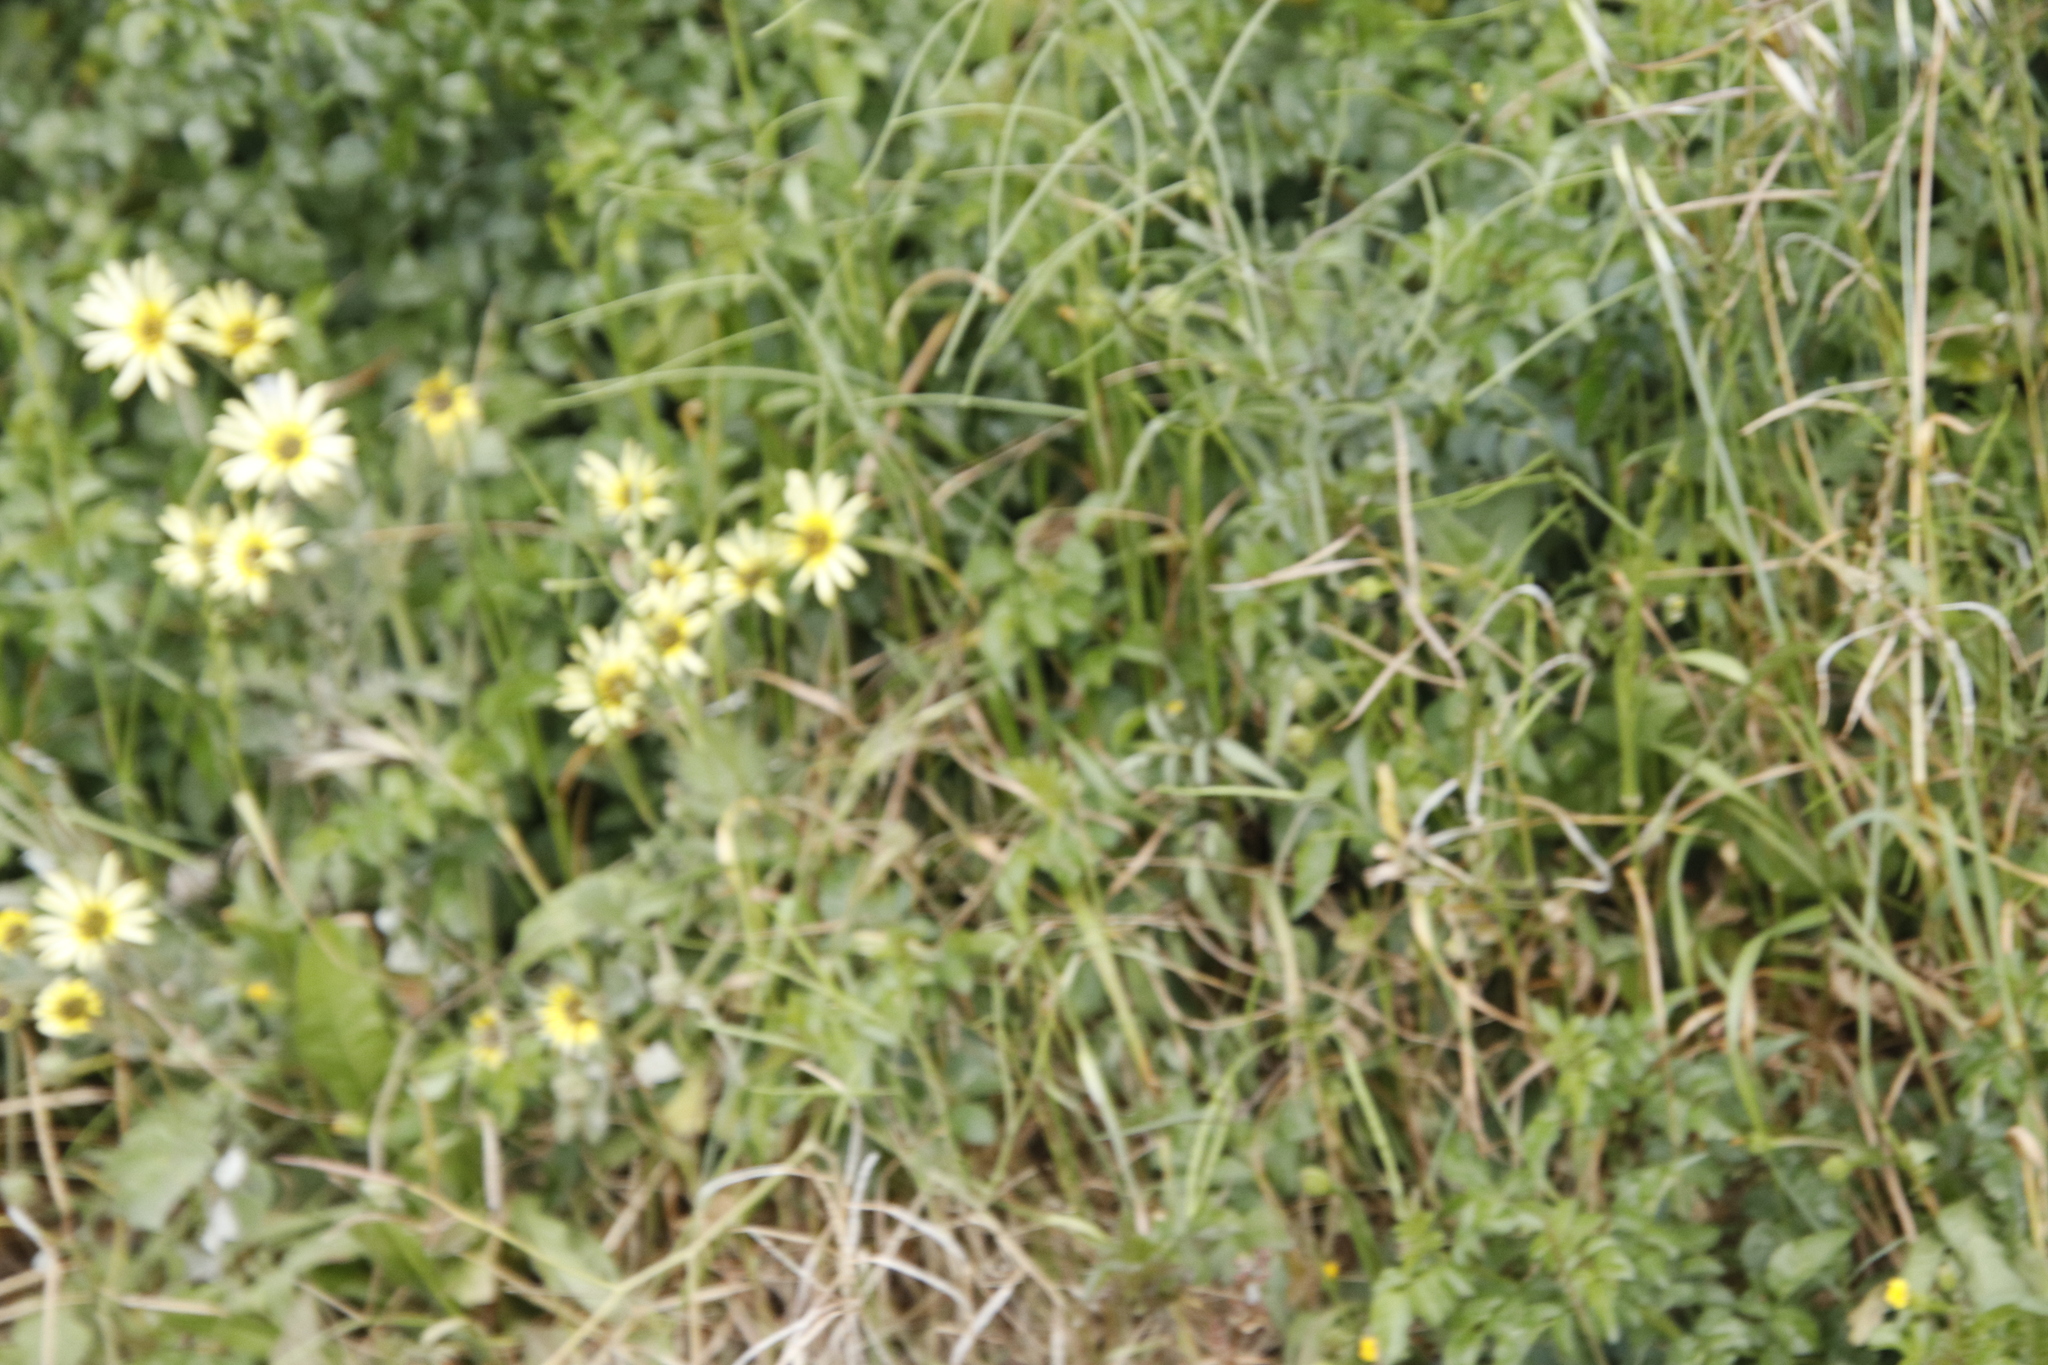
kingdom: Plantae
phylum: Tracheophyta
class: Magnoliopsida
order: Asterales
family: Asteraceae
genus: Arctotheca
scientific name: Arctotheca calendula
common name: Capeweed
